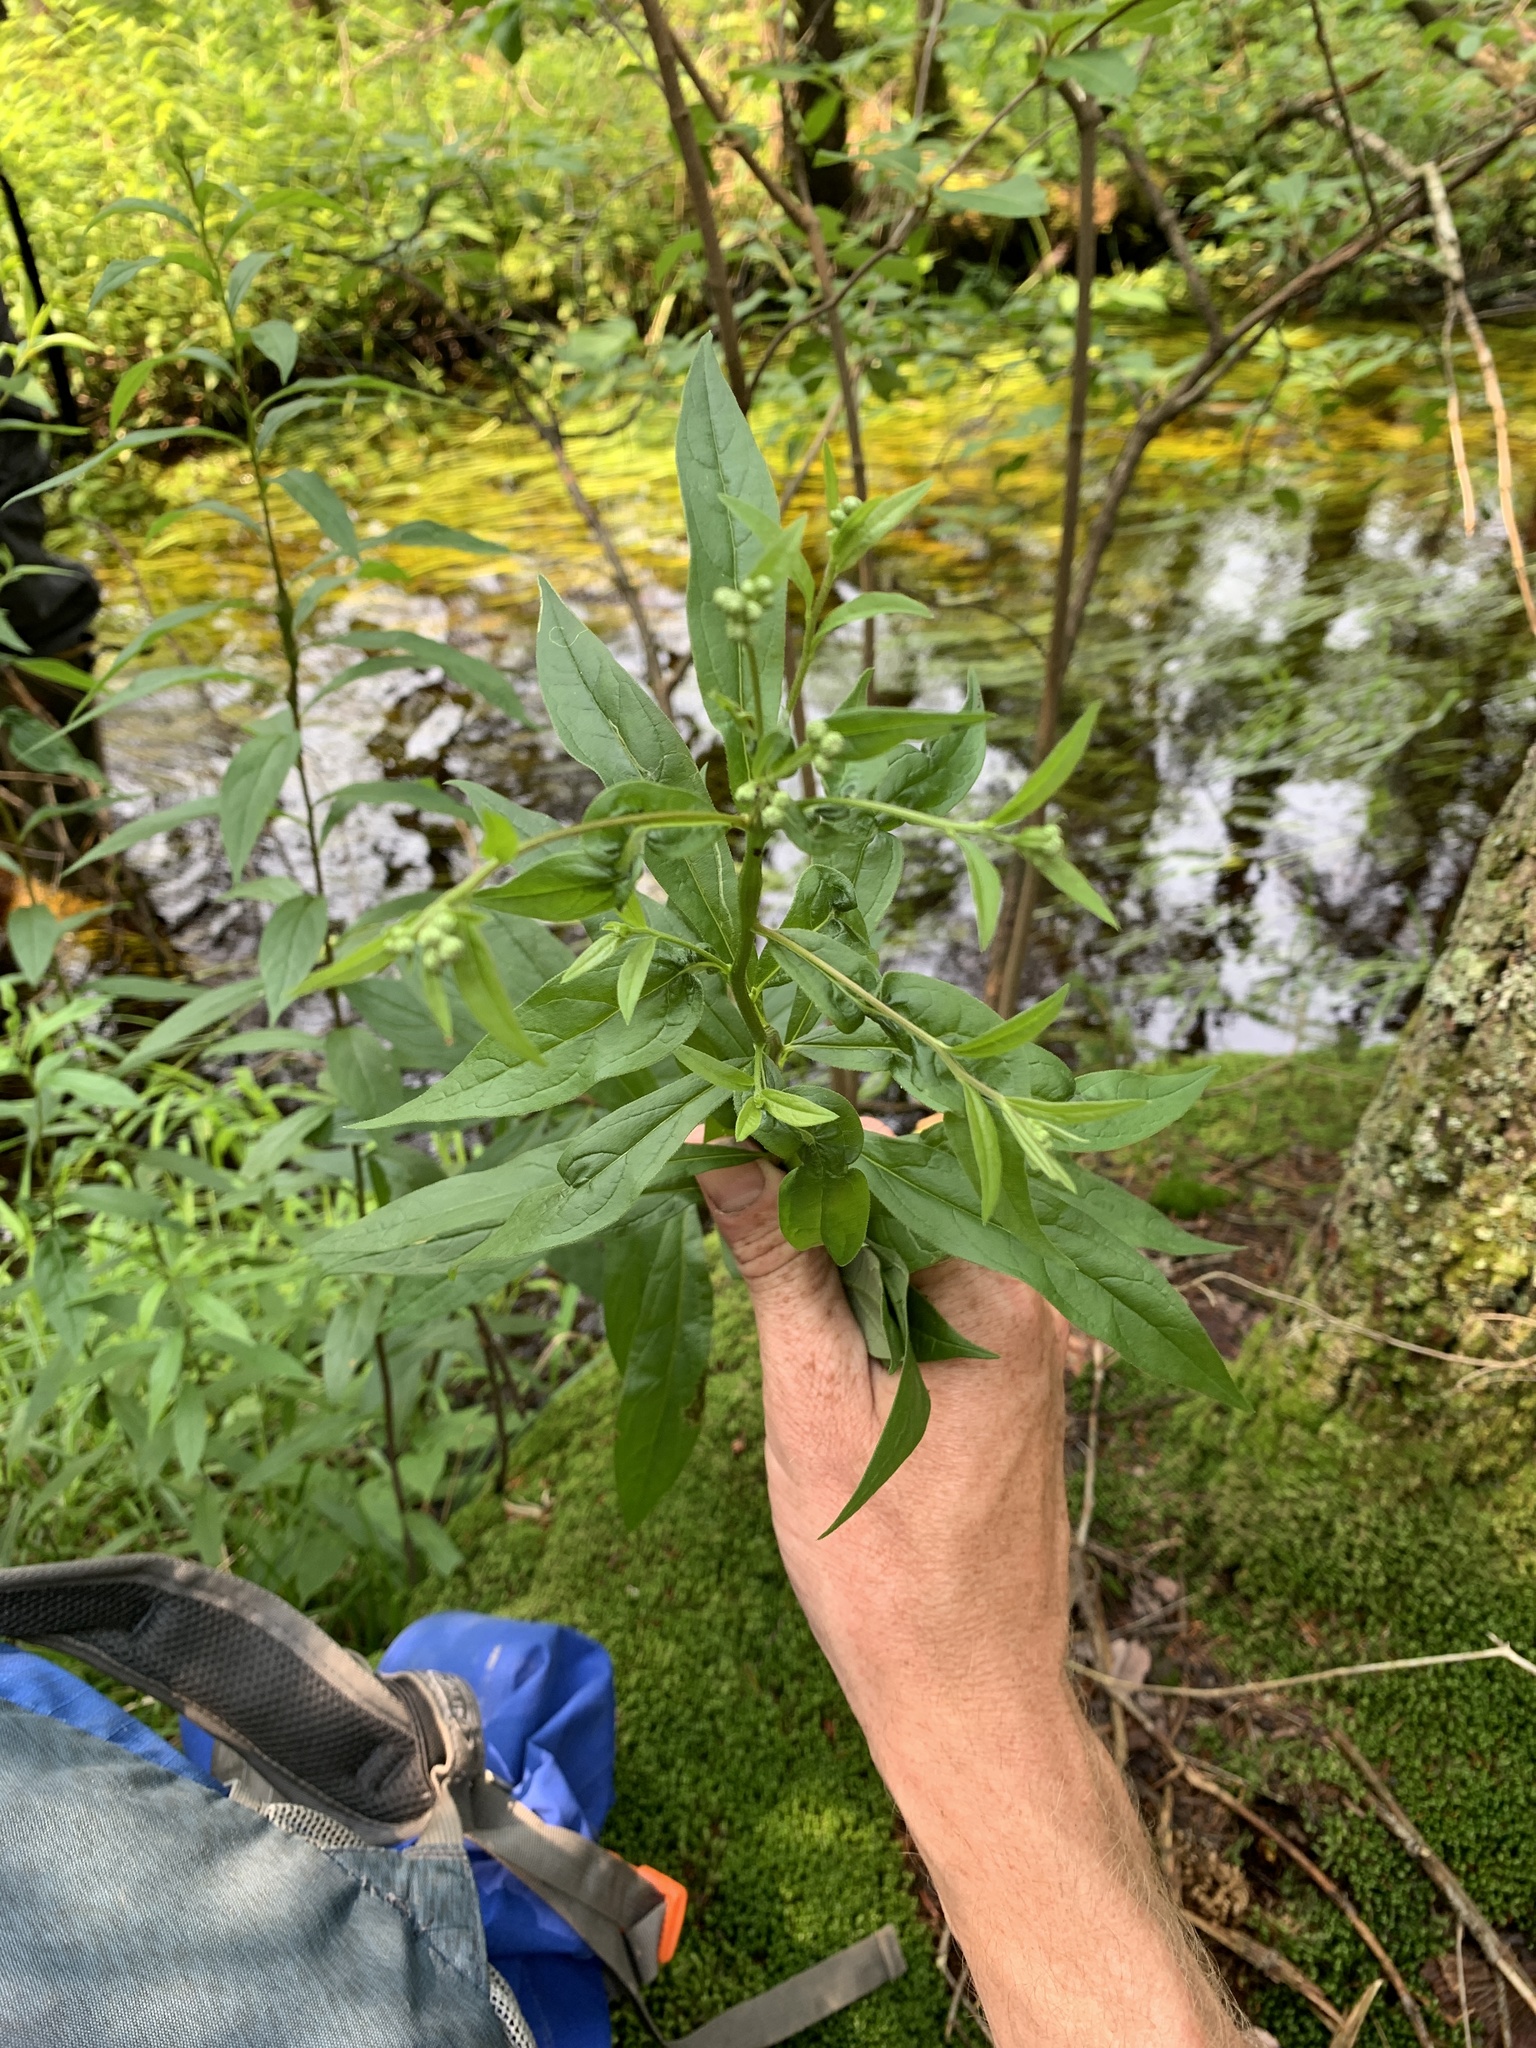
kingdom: Plantae
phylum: Tracheophyta
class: Magnoliopsida
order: Asterales
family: Asteraceae
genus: Doellingeria
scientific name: Doellingeria umbellata
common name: Flat-top white aster
